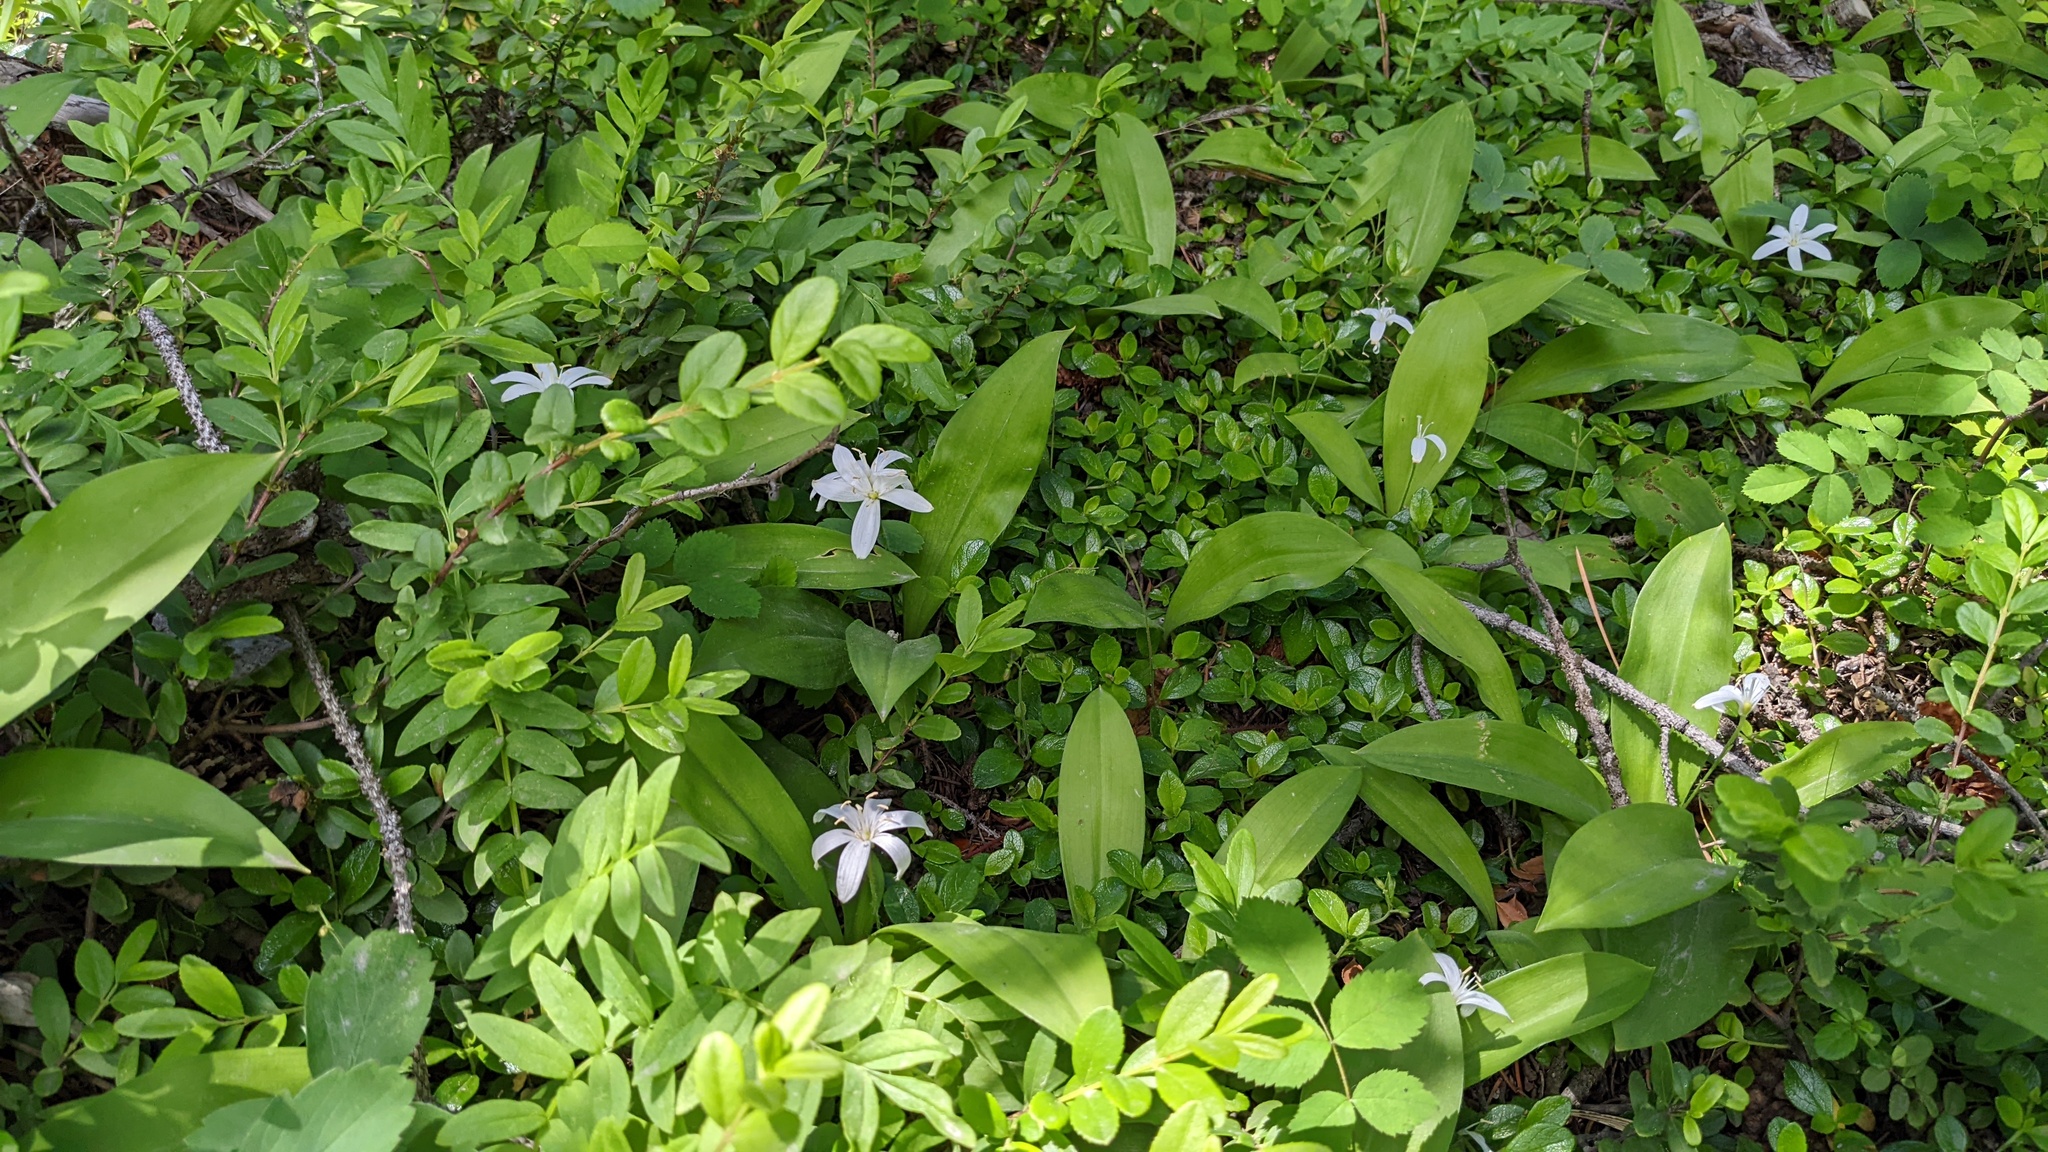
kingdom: Plantae
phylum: Tracheophyta
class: Liliopsida
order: Liliales
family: Liliaceae
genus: Clintonia
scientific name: Clintonia uniflora
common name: Queen's cup
